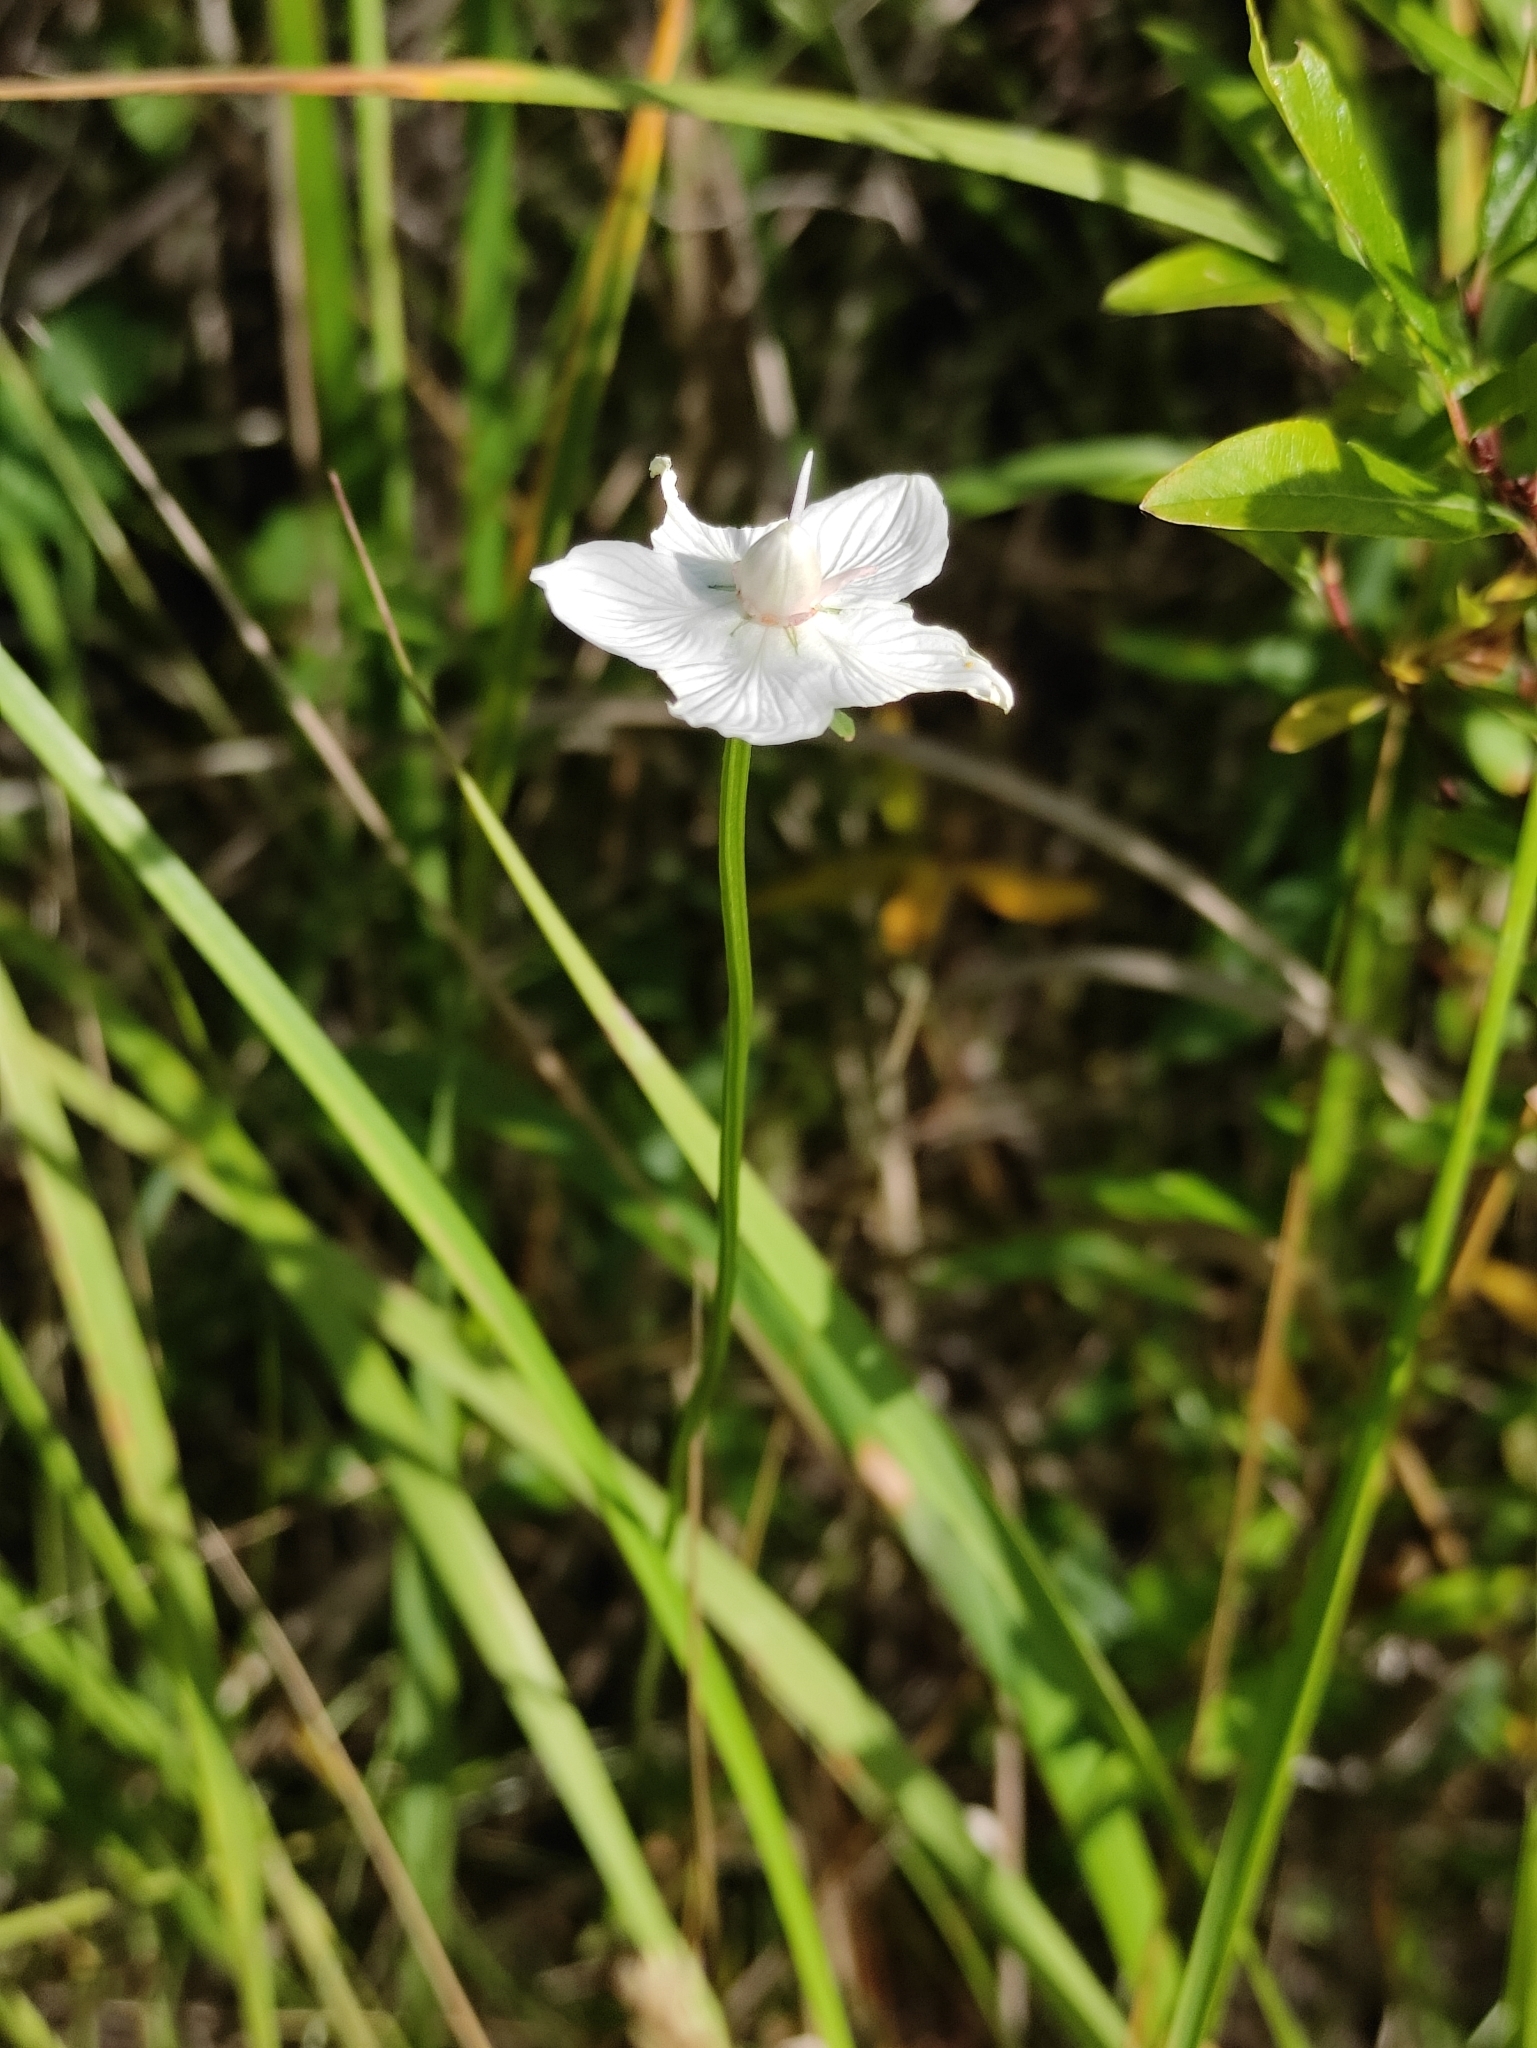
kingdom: Plantae
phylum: Tracheophyta
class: Magnoliopsida
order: Celastrales
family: Parnassiaceae
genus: Parnassia
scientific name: Parnassia palustris
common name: Grass-of-parnassus
